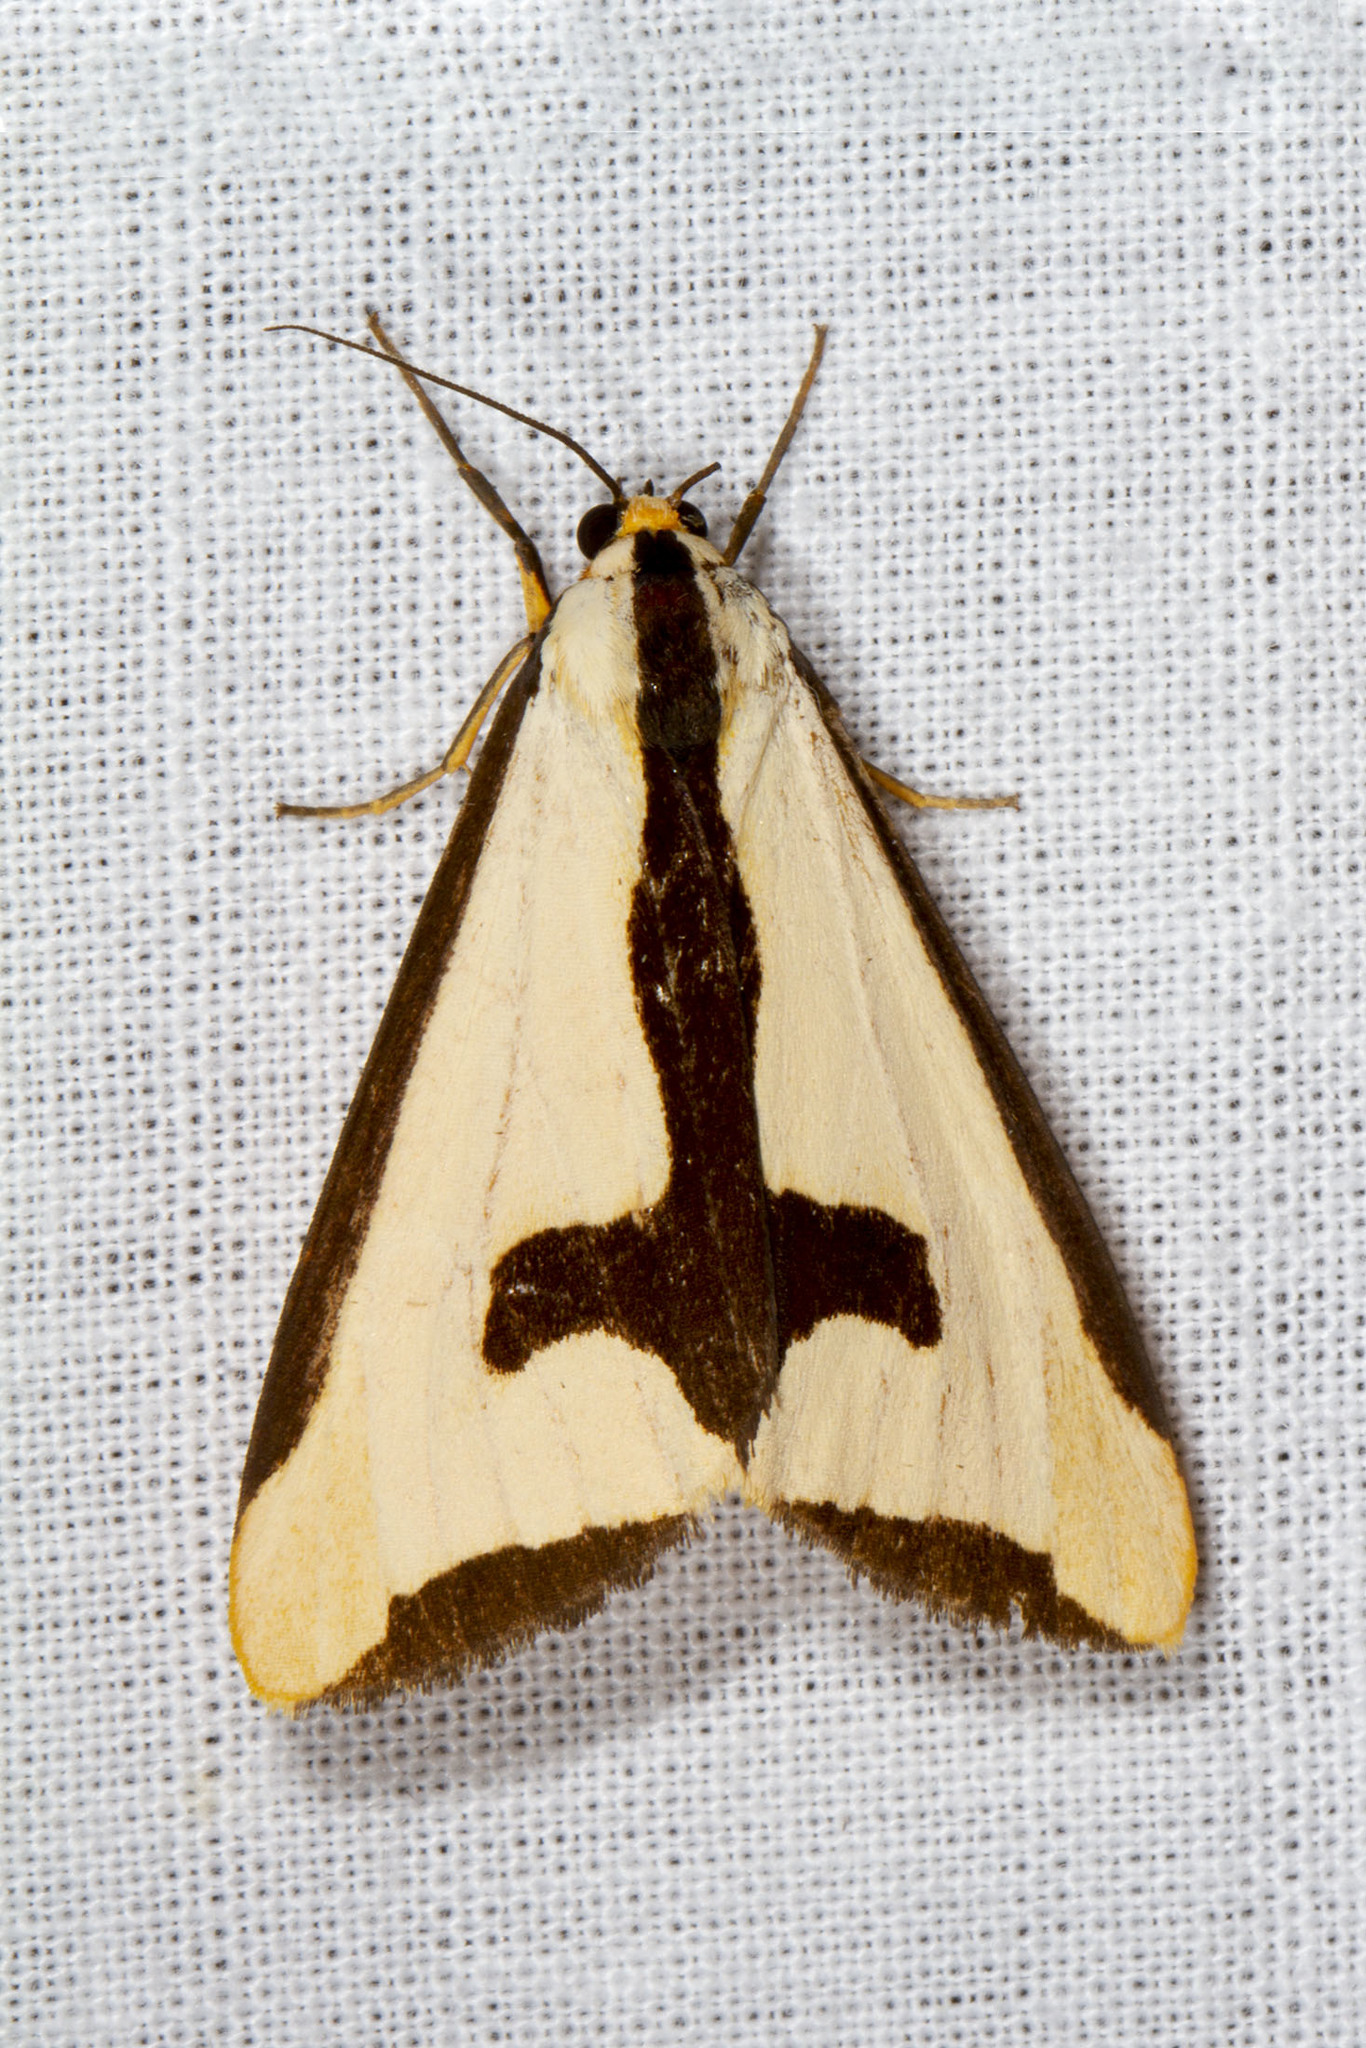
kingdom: Animalia
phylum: Arthropoda
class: Insecta
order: Lepidoptera
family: Erebidae
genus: Haploa
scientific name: Haploa clymene
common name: Clymene moth
